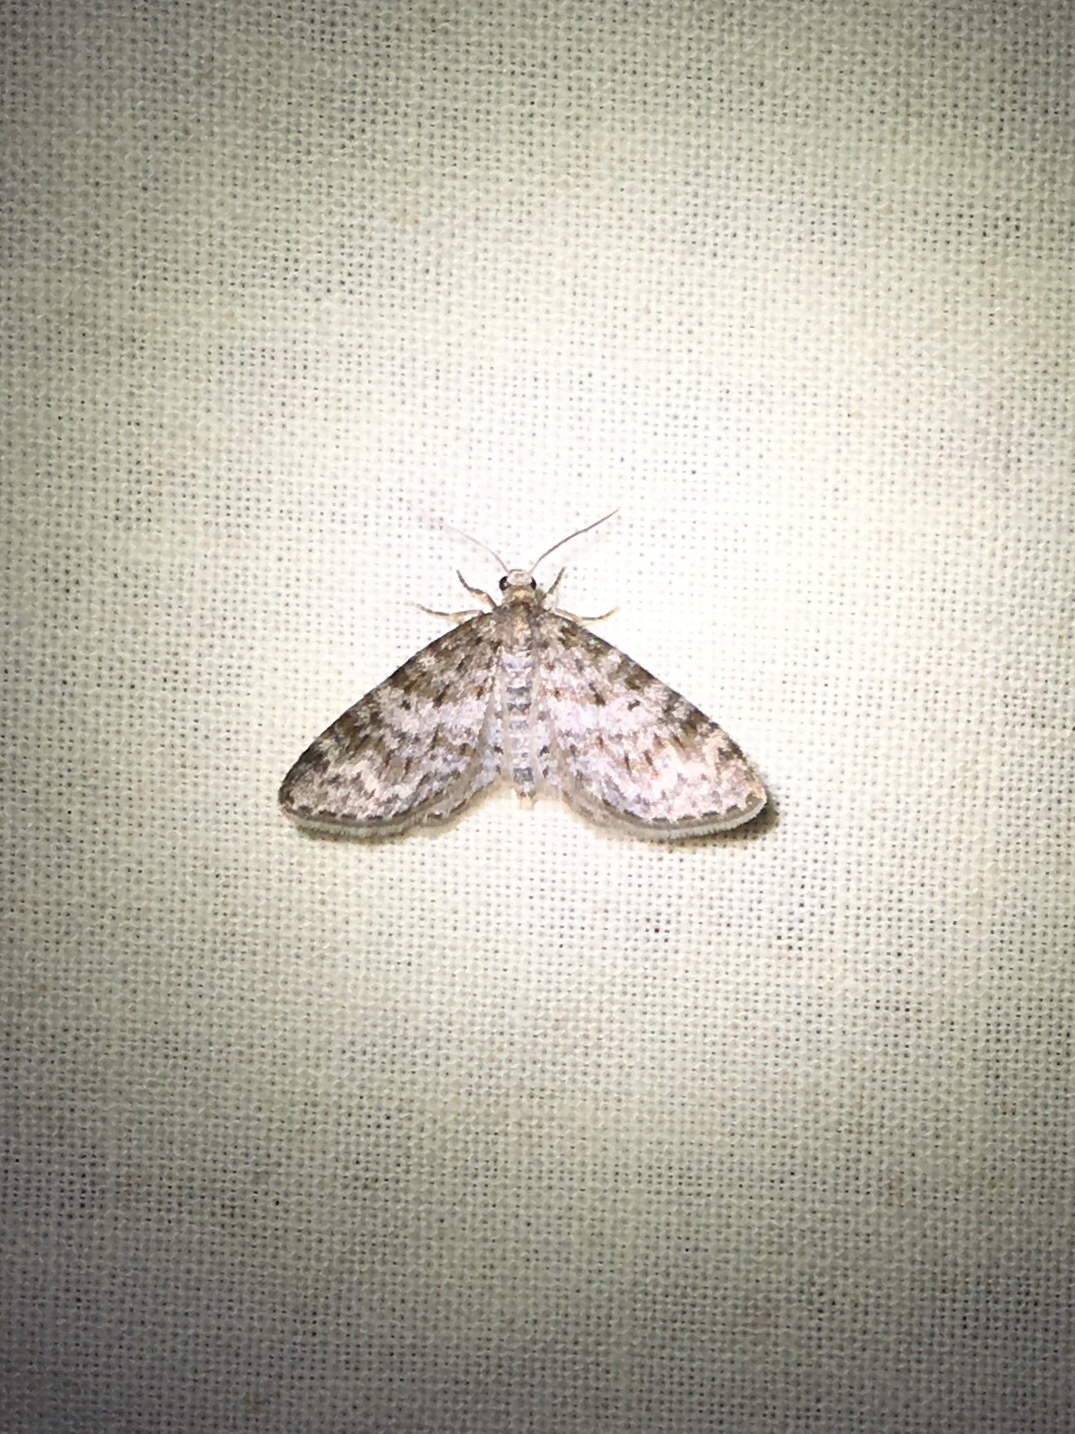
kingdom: Animalia
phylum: Arthropoda
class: Insecta
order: Lepidoptera
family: Geometridae
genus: Hydrelia
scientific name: Hydrelia inornata
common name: Unadorned carpet moth
